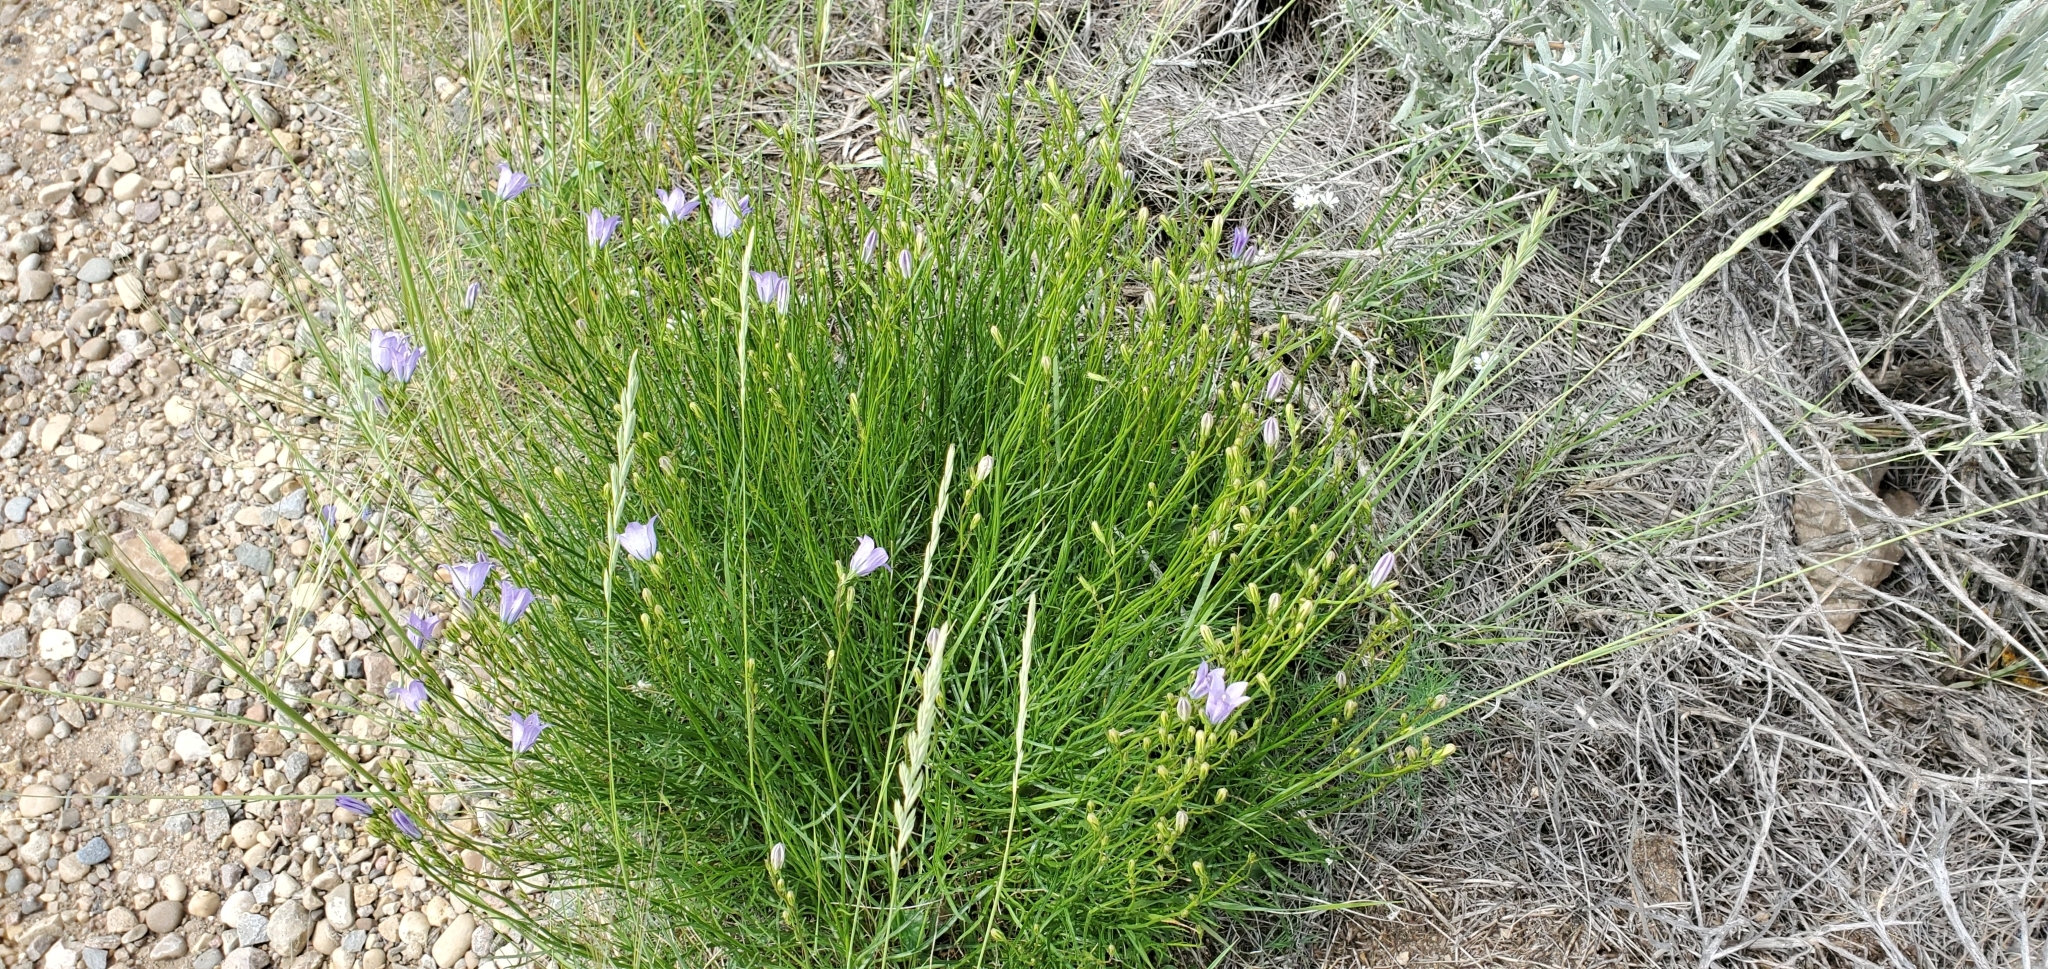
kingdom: Plantae
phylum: Tracheophyta
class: Magnoliopsida
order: Asterales
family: Campanulaceae
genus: Campanula
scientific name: Campanula alaskana
